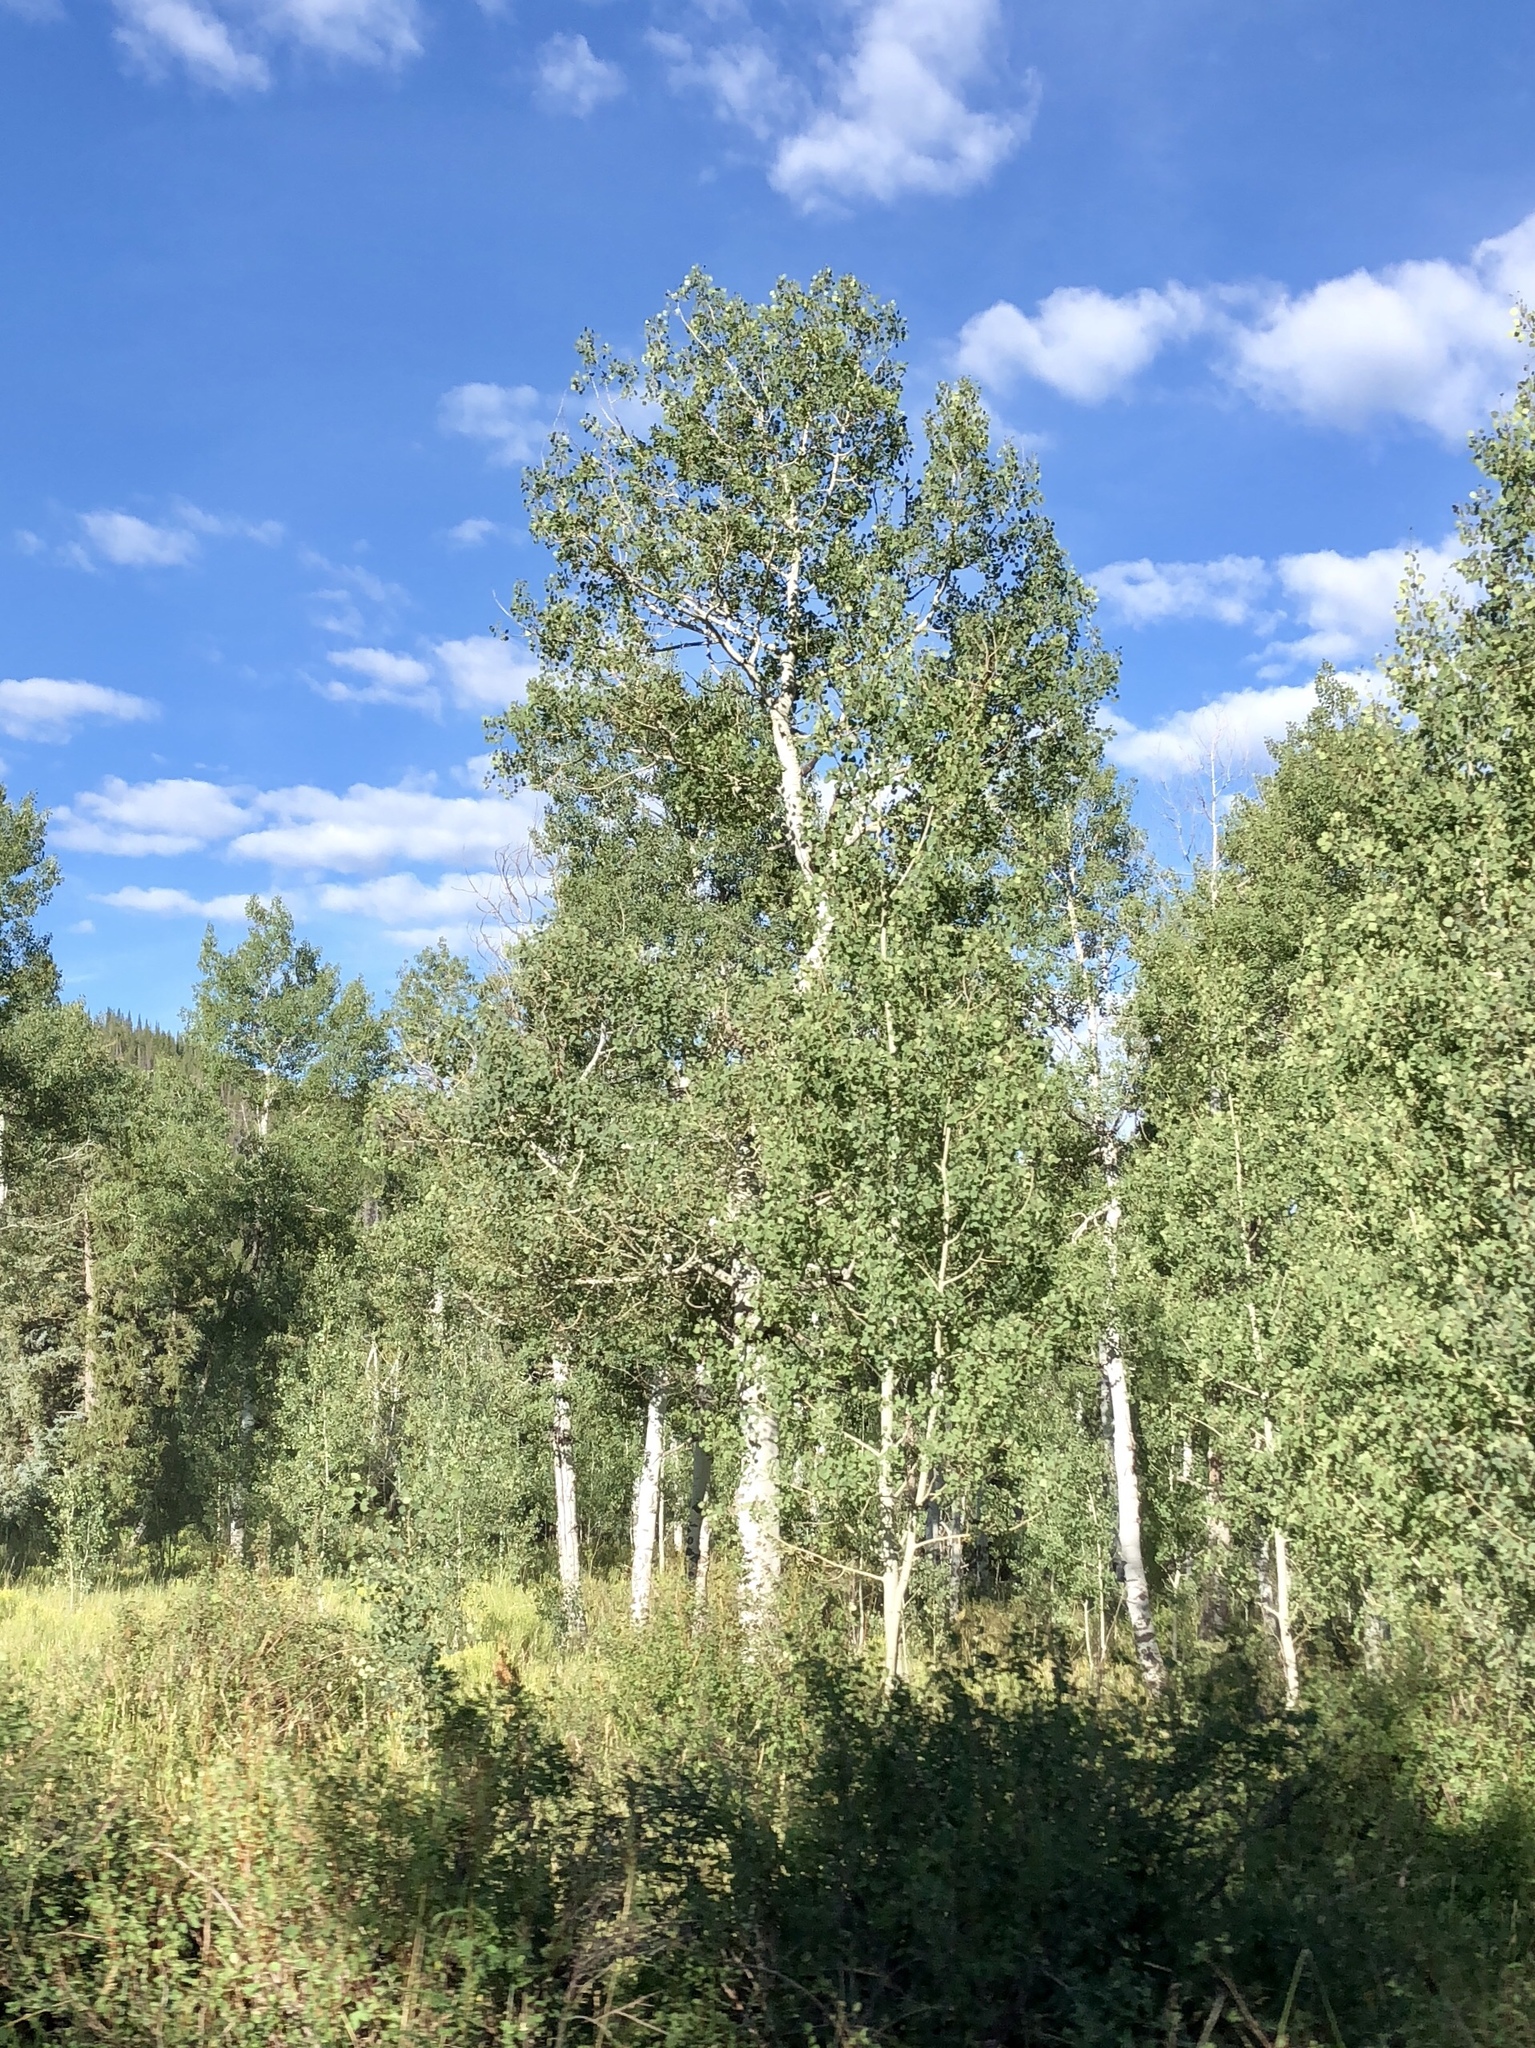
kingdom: Plantae
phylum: Tracheophyta
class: Magnoliopsida
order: Malpighiales
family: Salicaceae
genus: Populus
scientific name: Populus tremuloides
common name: Quaking aspen
